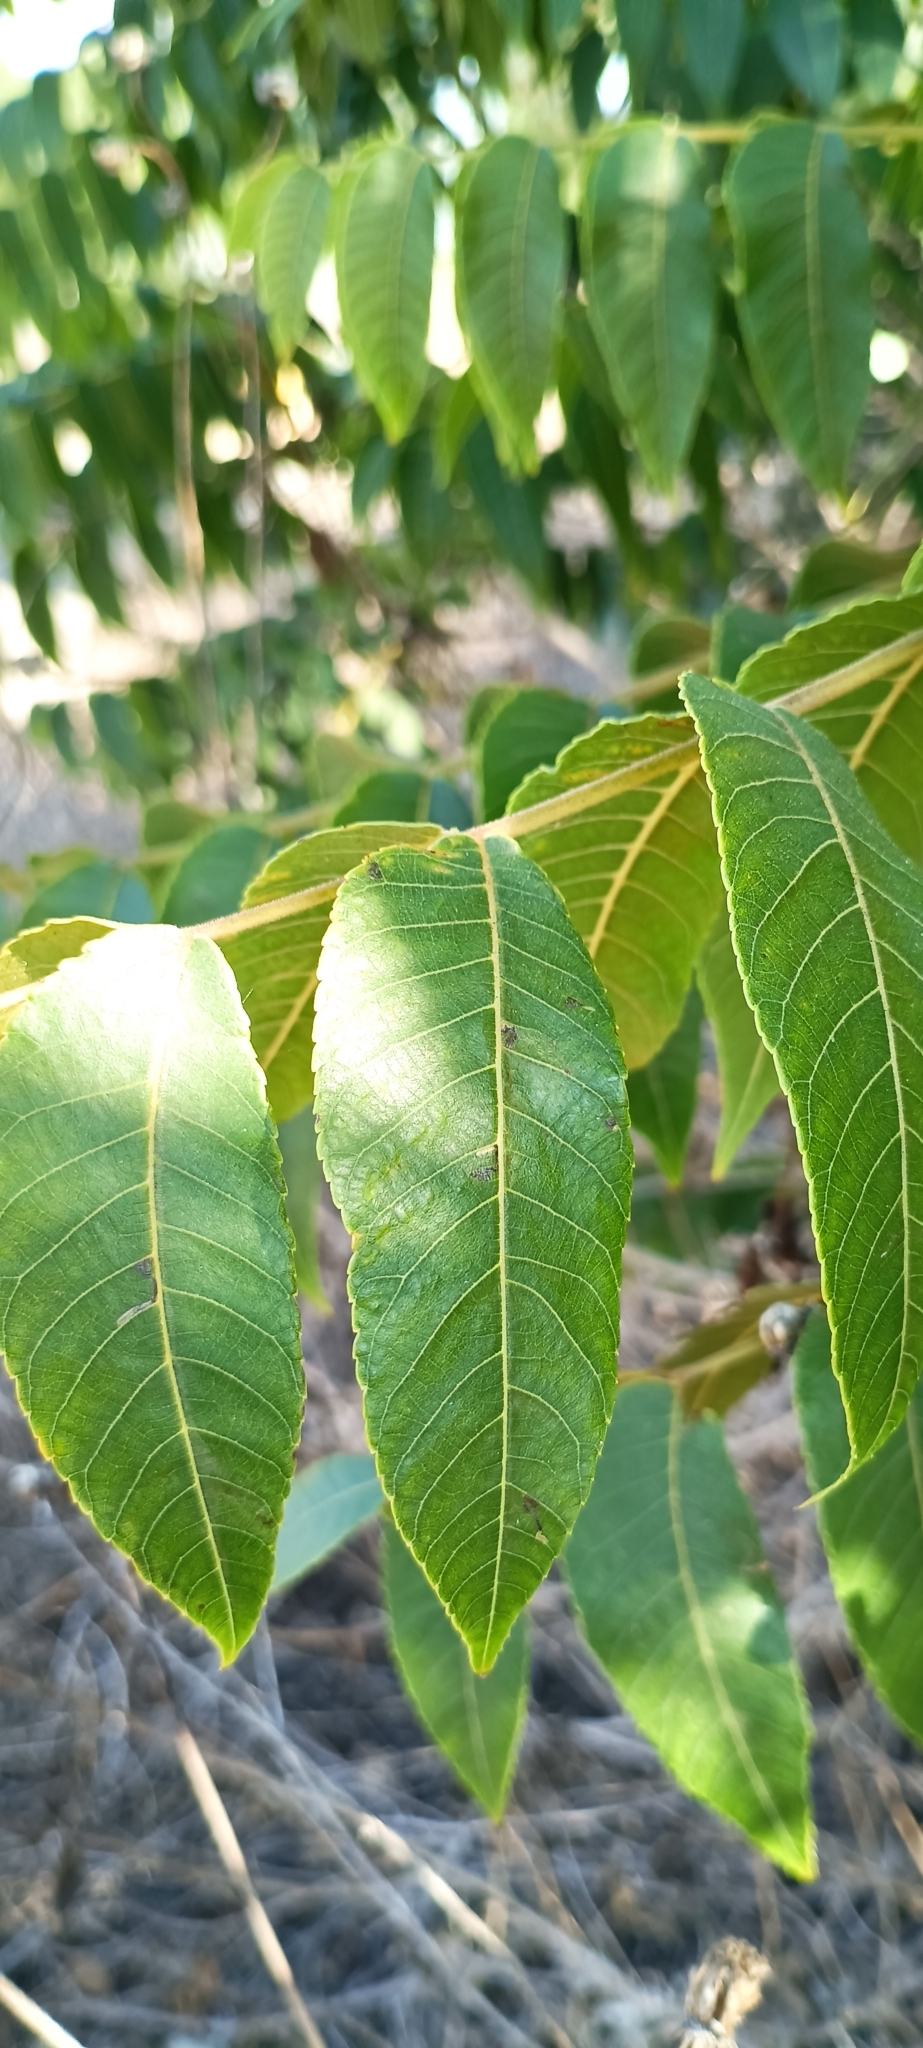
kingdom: Plantae
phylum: Tracheophyta
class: Magnoliopsida
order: Fagales
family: Juglandaceae
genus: Juglans
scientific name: Juglans californica
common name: Southern california black walnut
